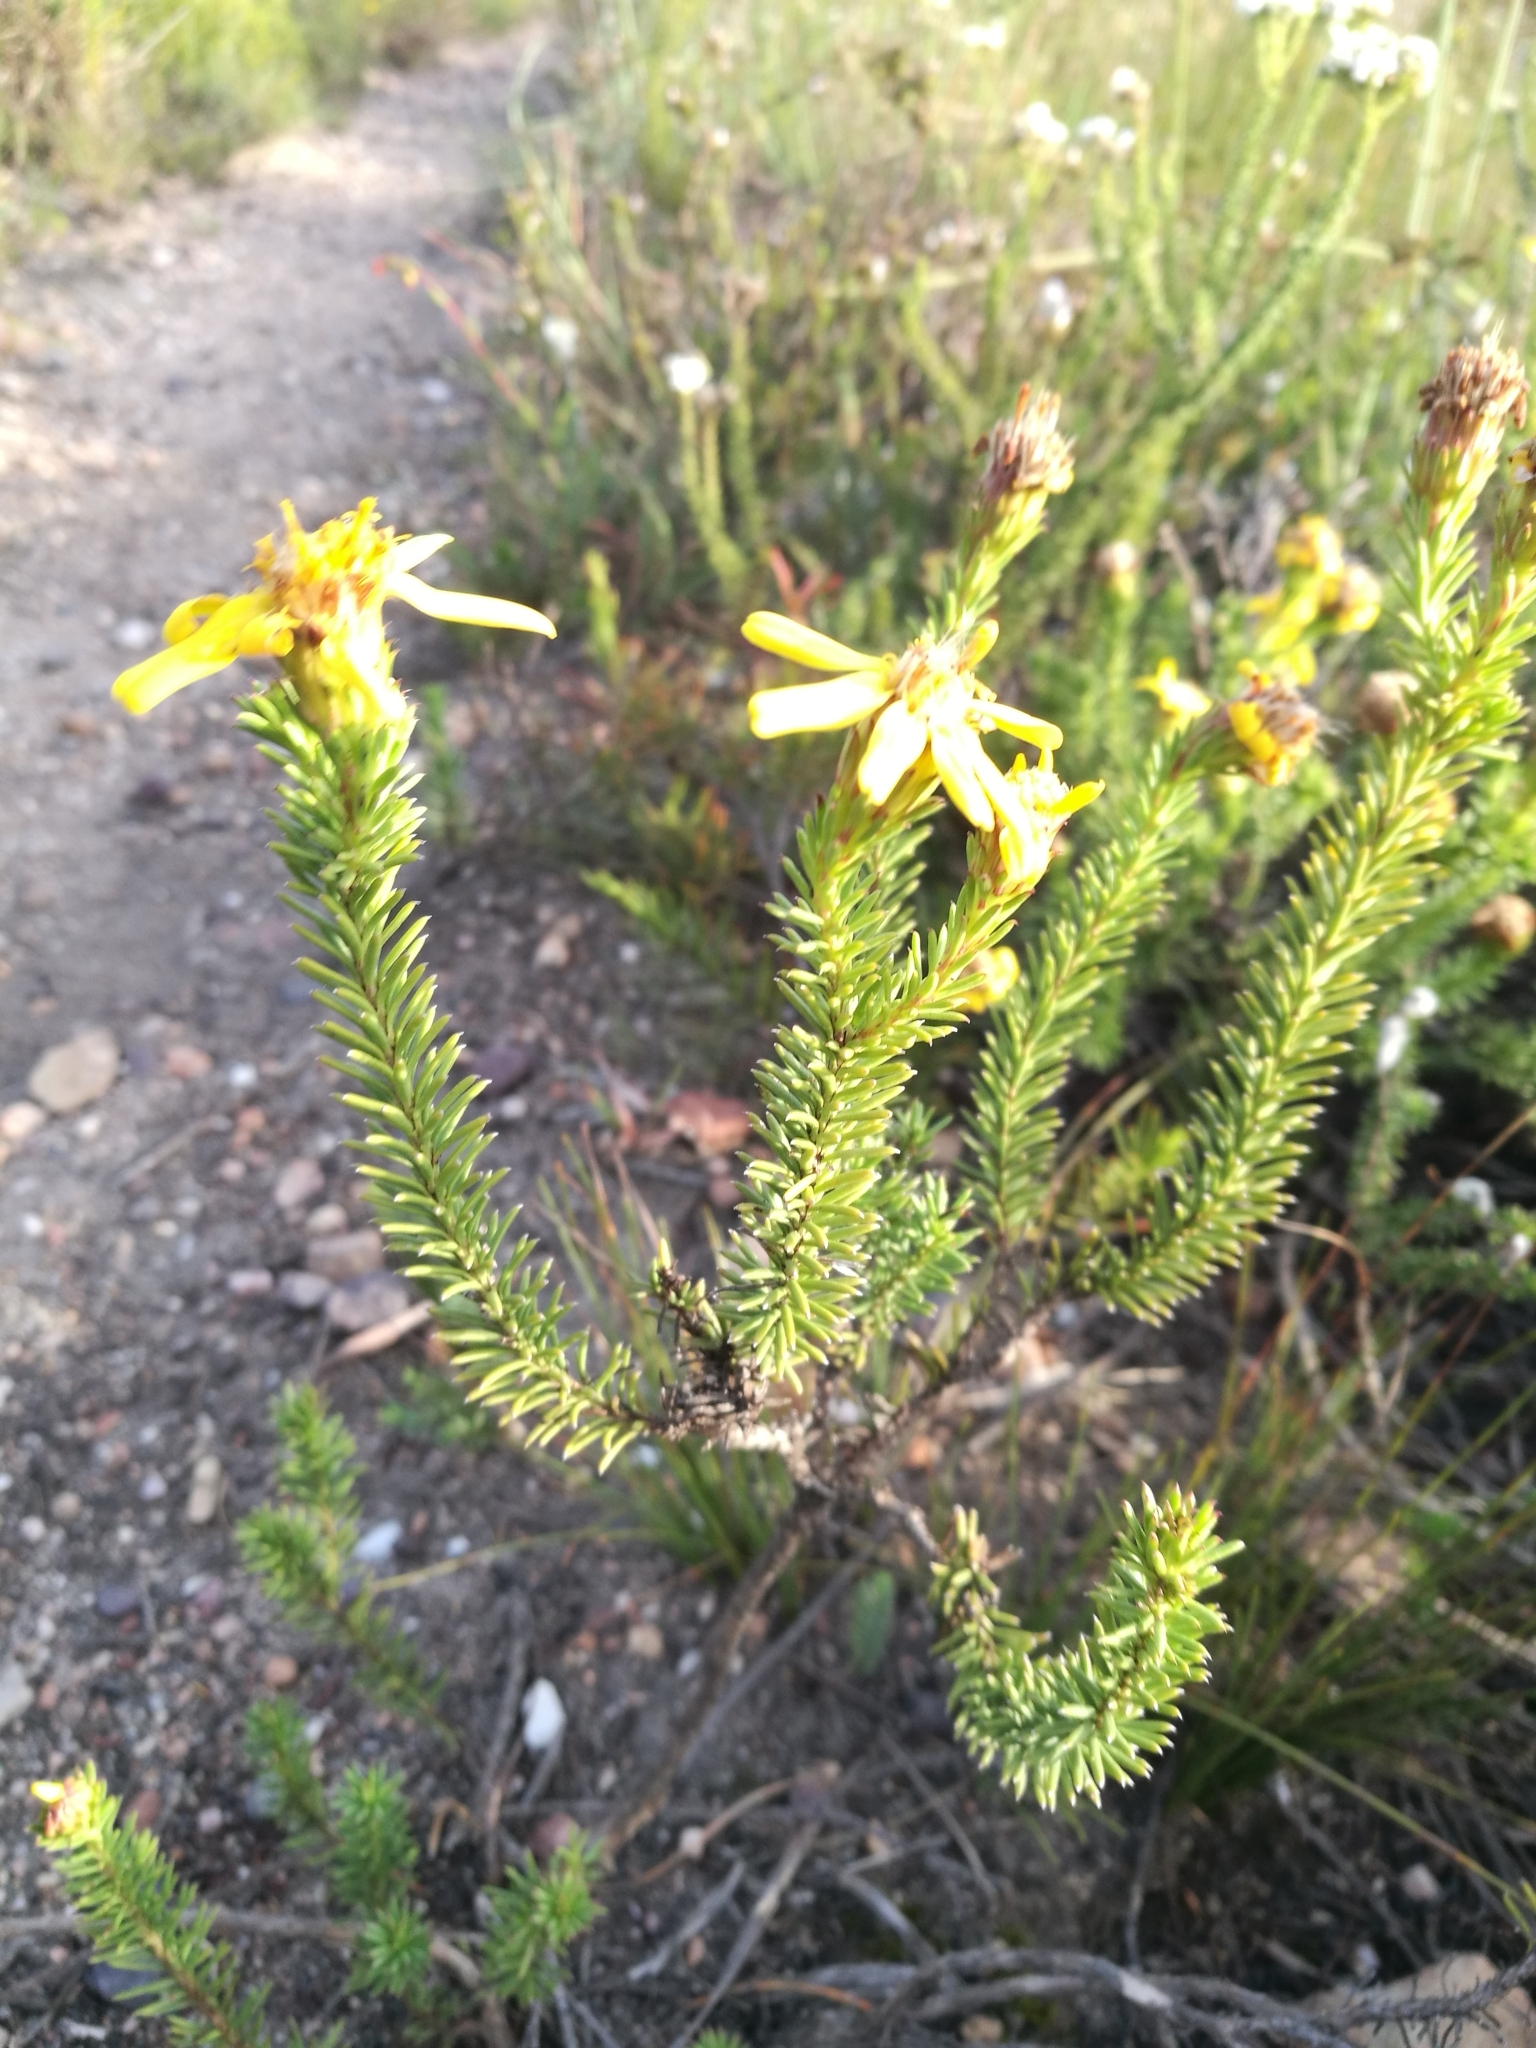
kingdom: Plantae
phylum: Tracheophyta
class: Magnoliopsida
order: Asterales
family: Asteraceae
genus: Senecio
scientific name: Senecio pinifolius
